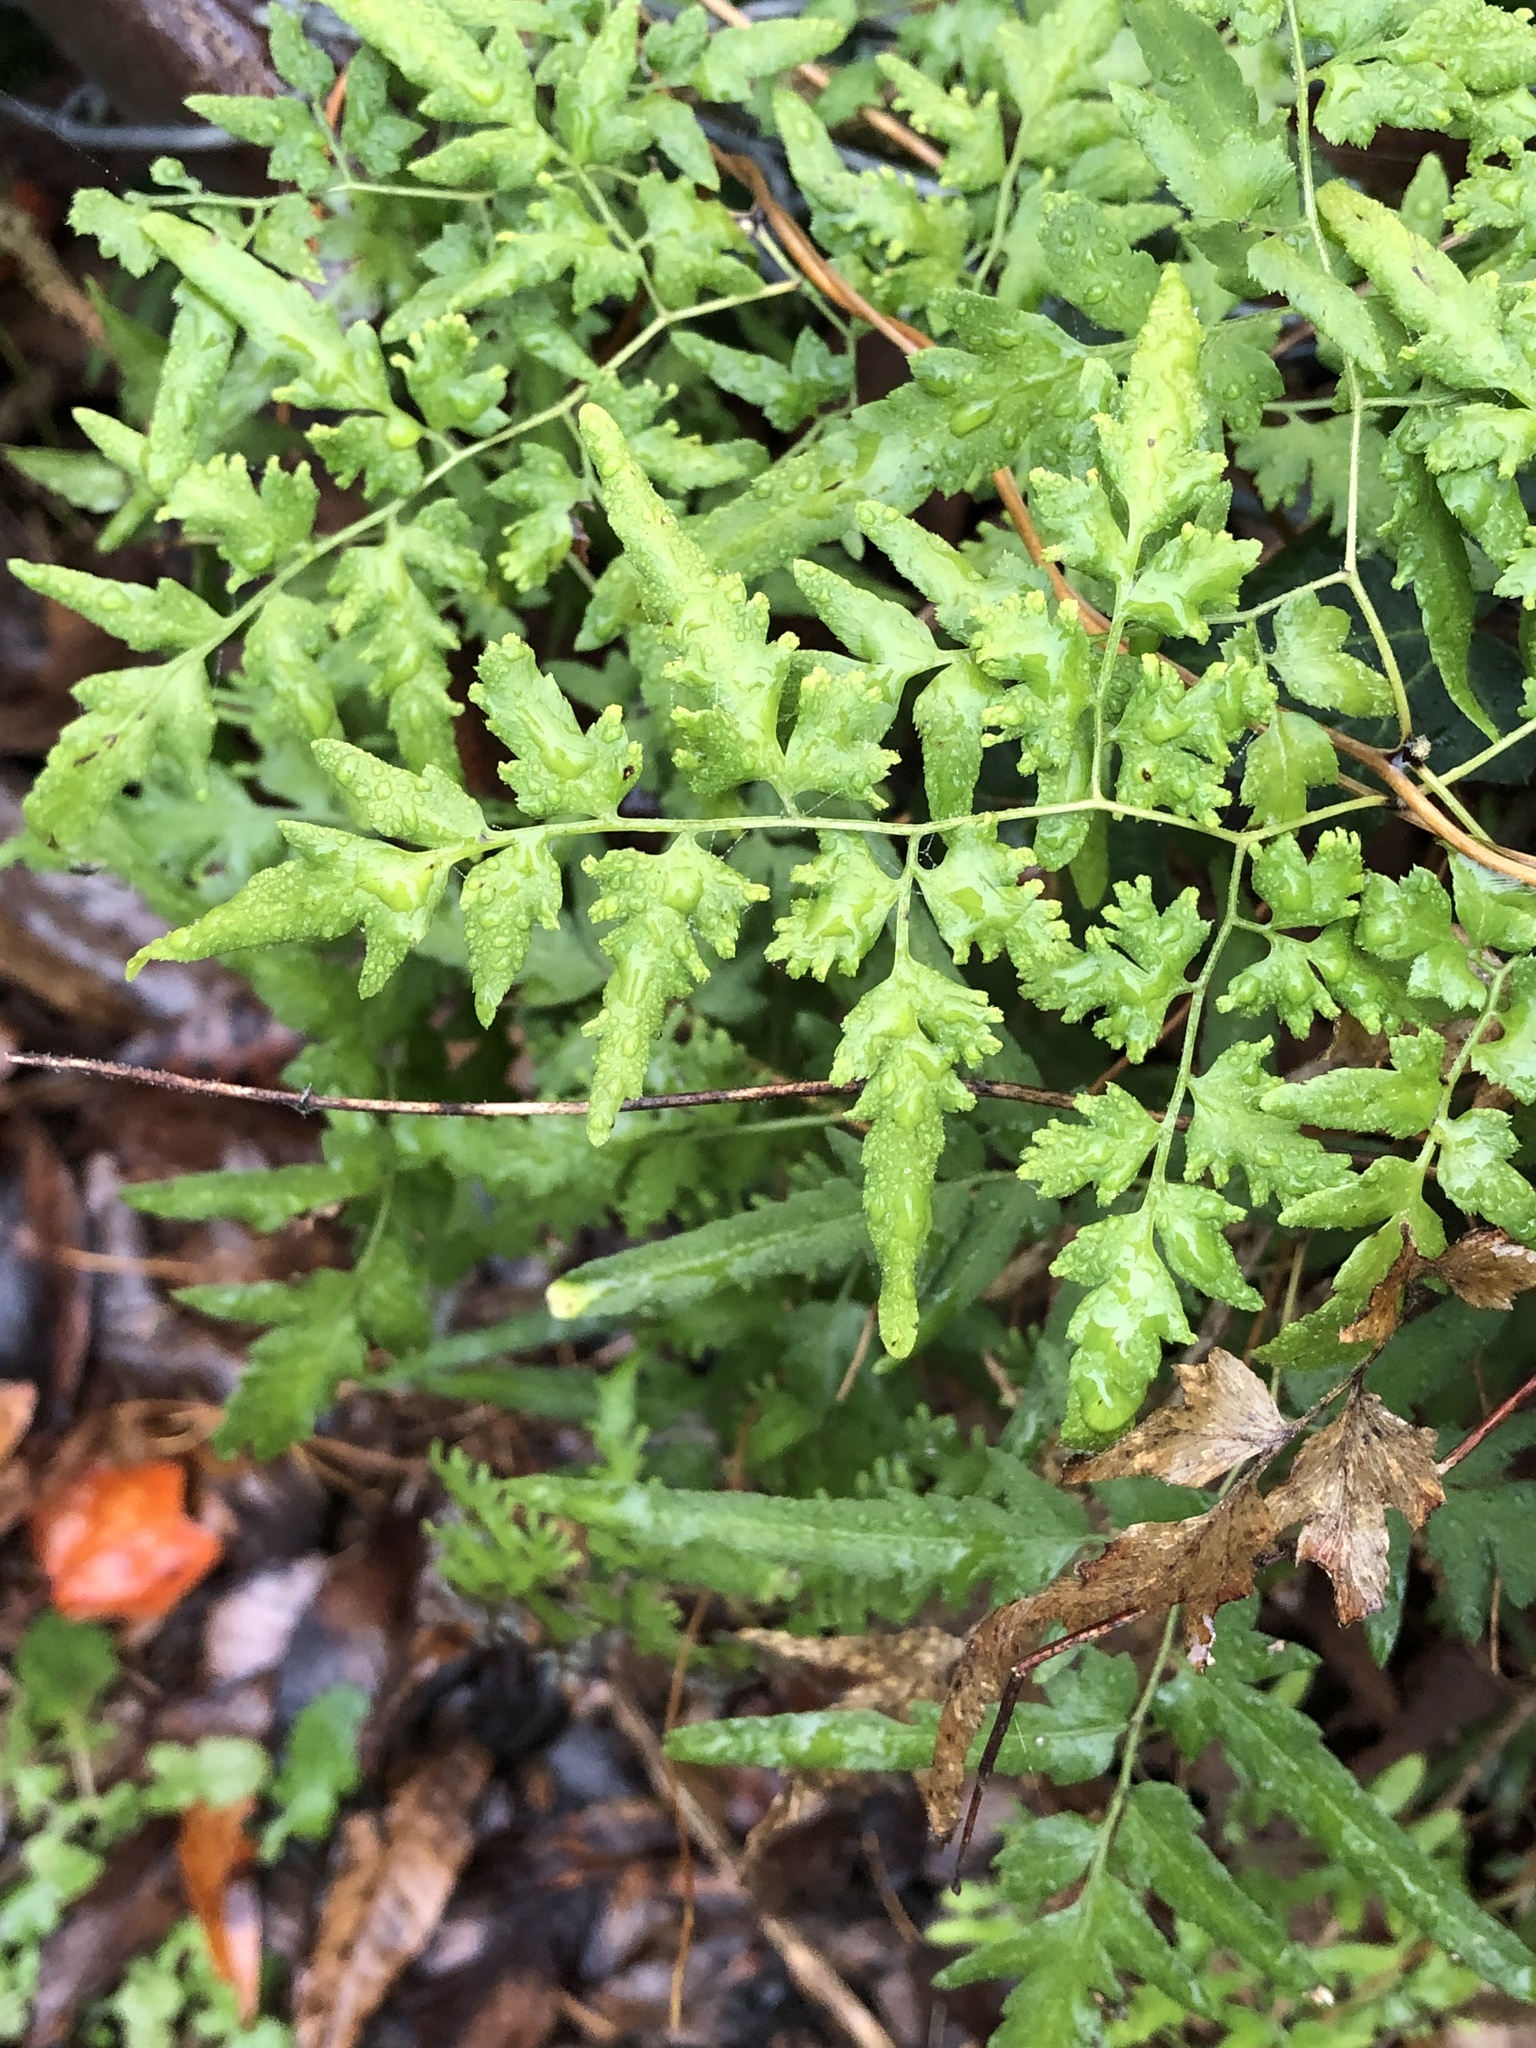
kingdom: Plantae
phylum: Tracheophyta
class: Polypodiopsida
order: Schizaeales
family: Lygodiaceae
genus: Lygodium
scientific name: Lygodium japonicum
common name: Japanese climbing fern
